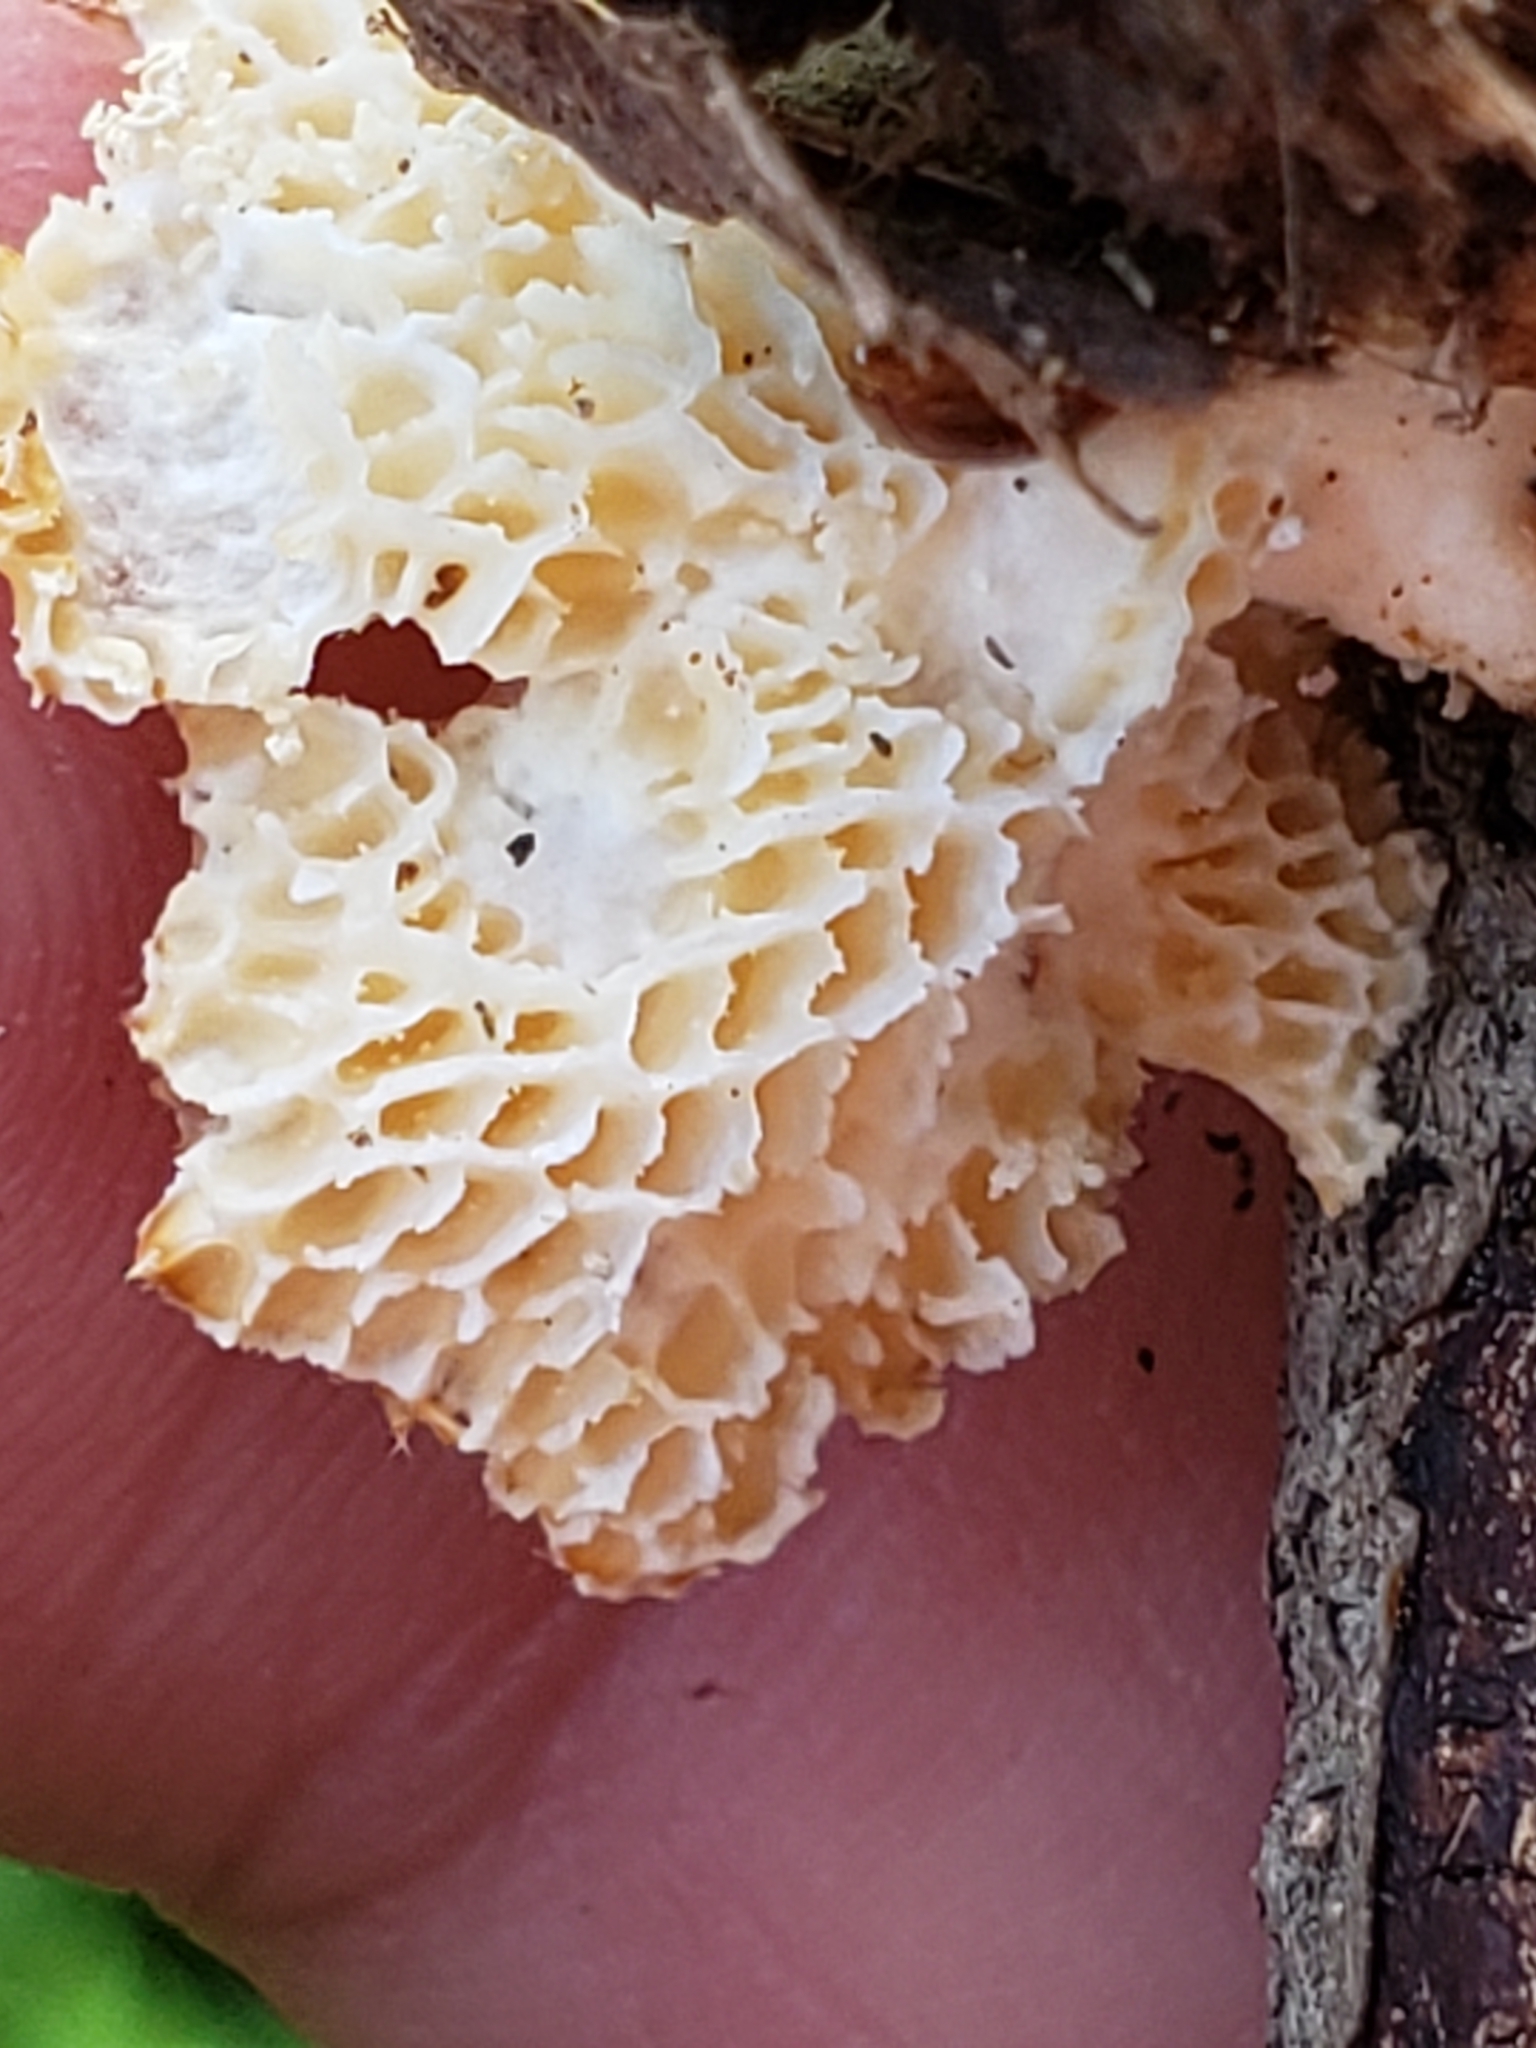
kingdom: Fungi
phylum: Basidiomycota
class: Agaricomycetes
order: Polyporales
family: Polyporaceae
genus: Neofavolus
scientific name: Neofavolus alveolaris
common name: Hexagonal-pored polypore
